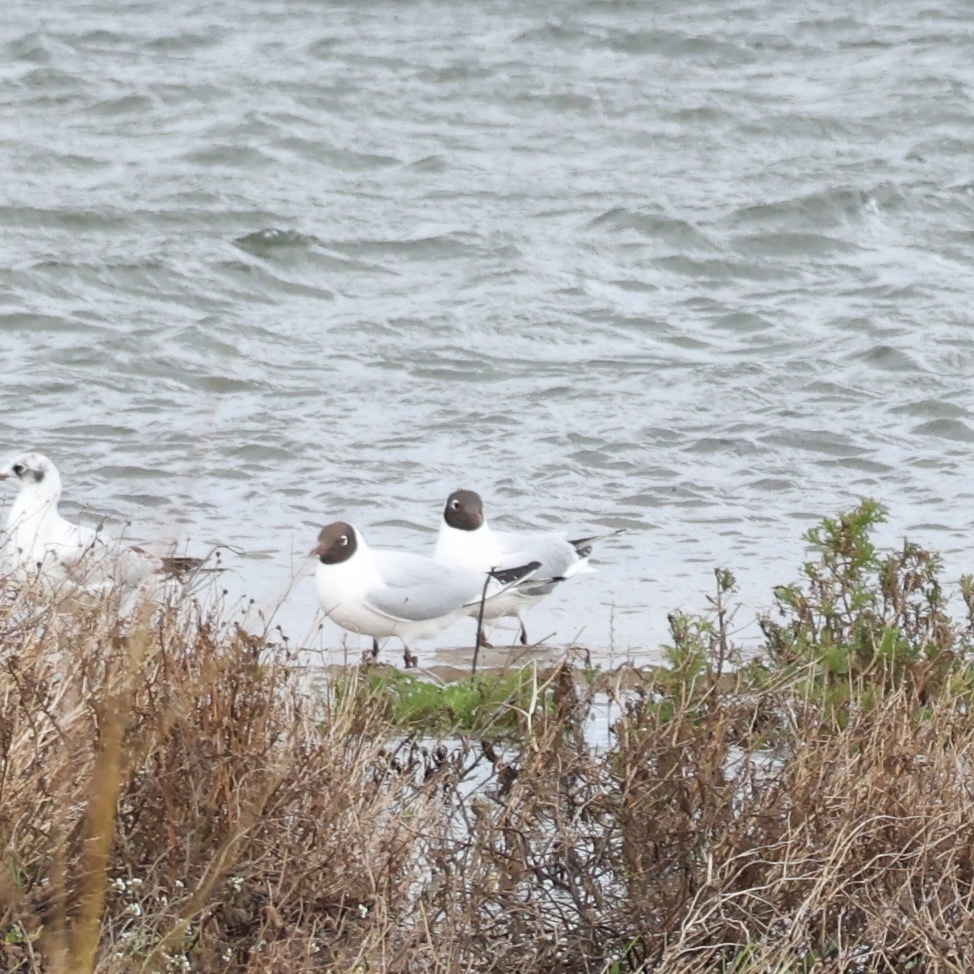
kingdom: Animalia
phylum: Chordata
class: Aves
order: Charadriiformes
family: Laridae
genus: Chroicocephalus
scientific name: Chroicocephalus ridibundus
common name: Black-headed gull
